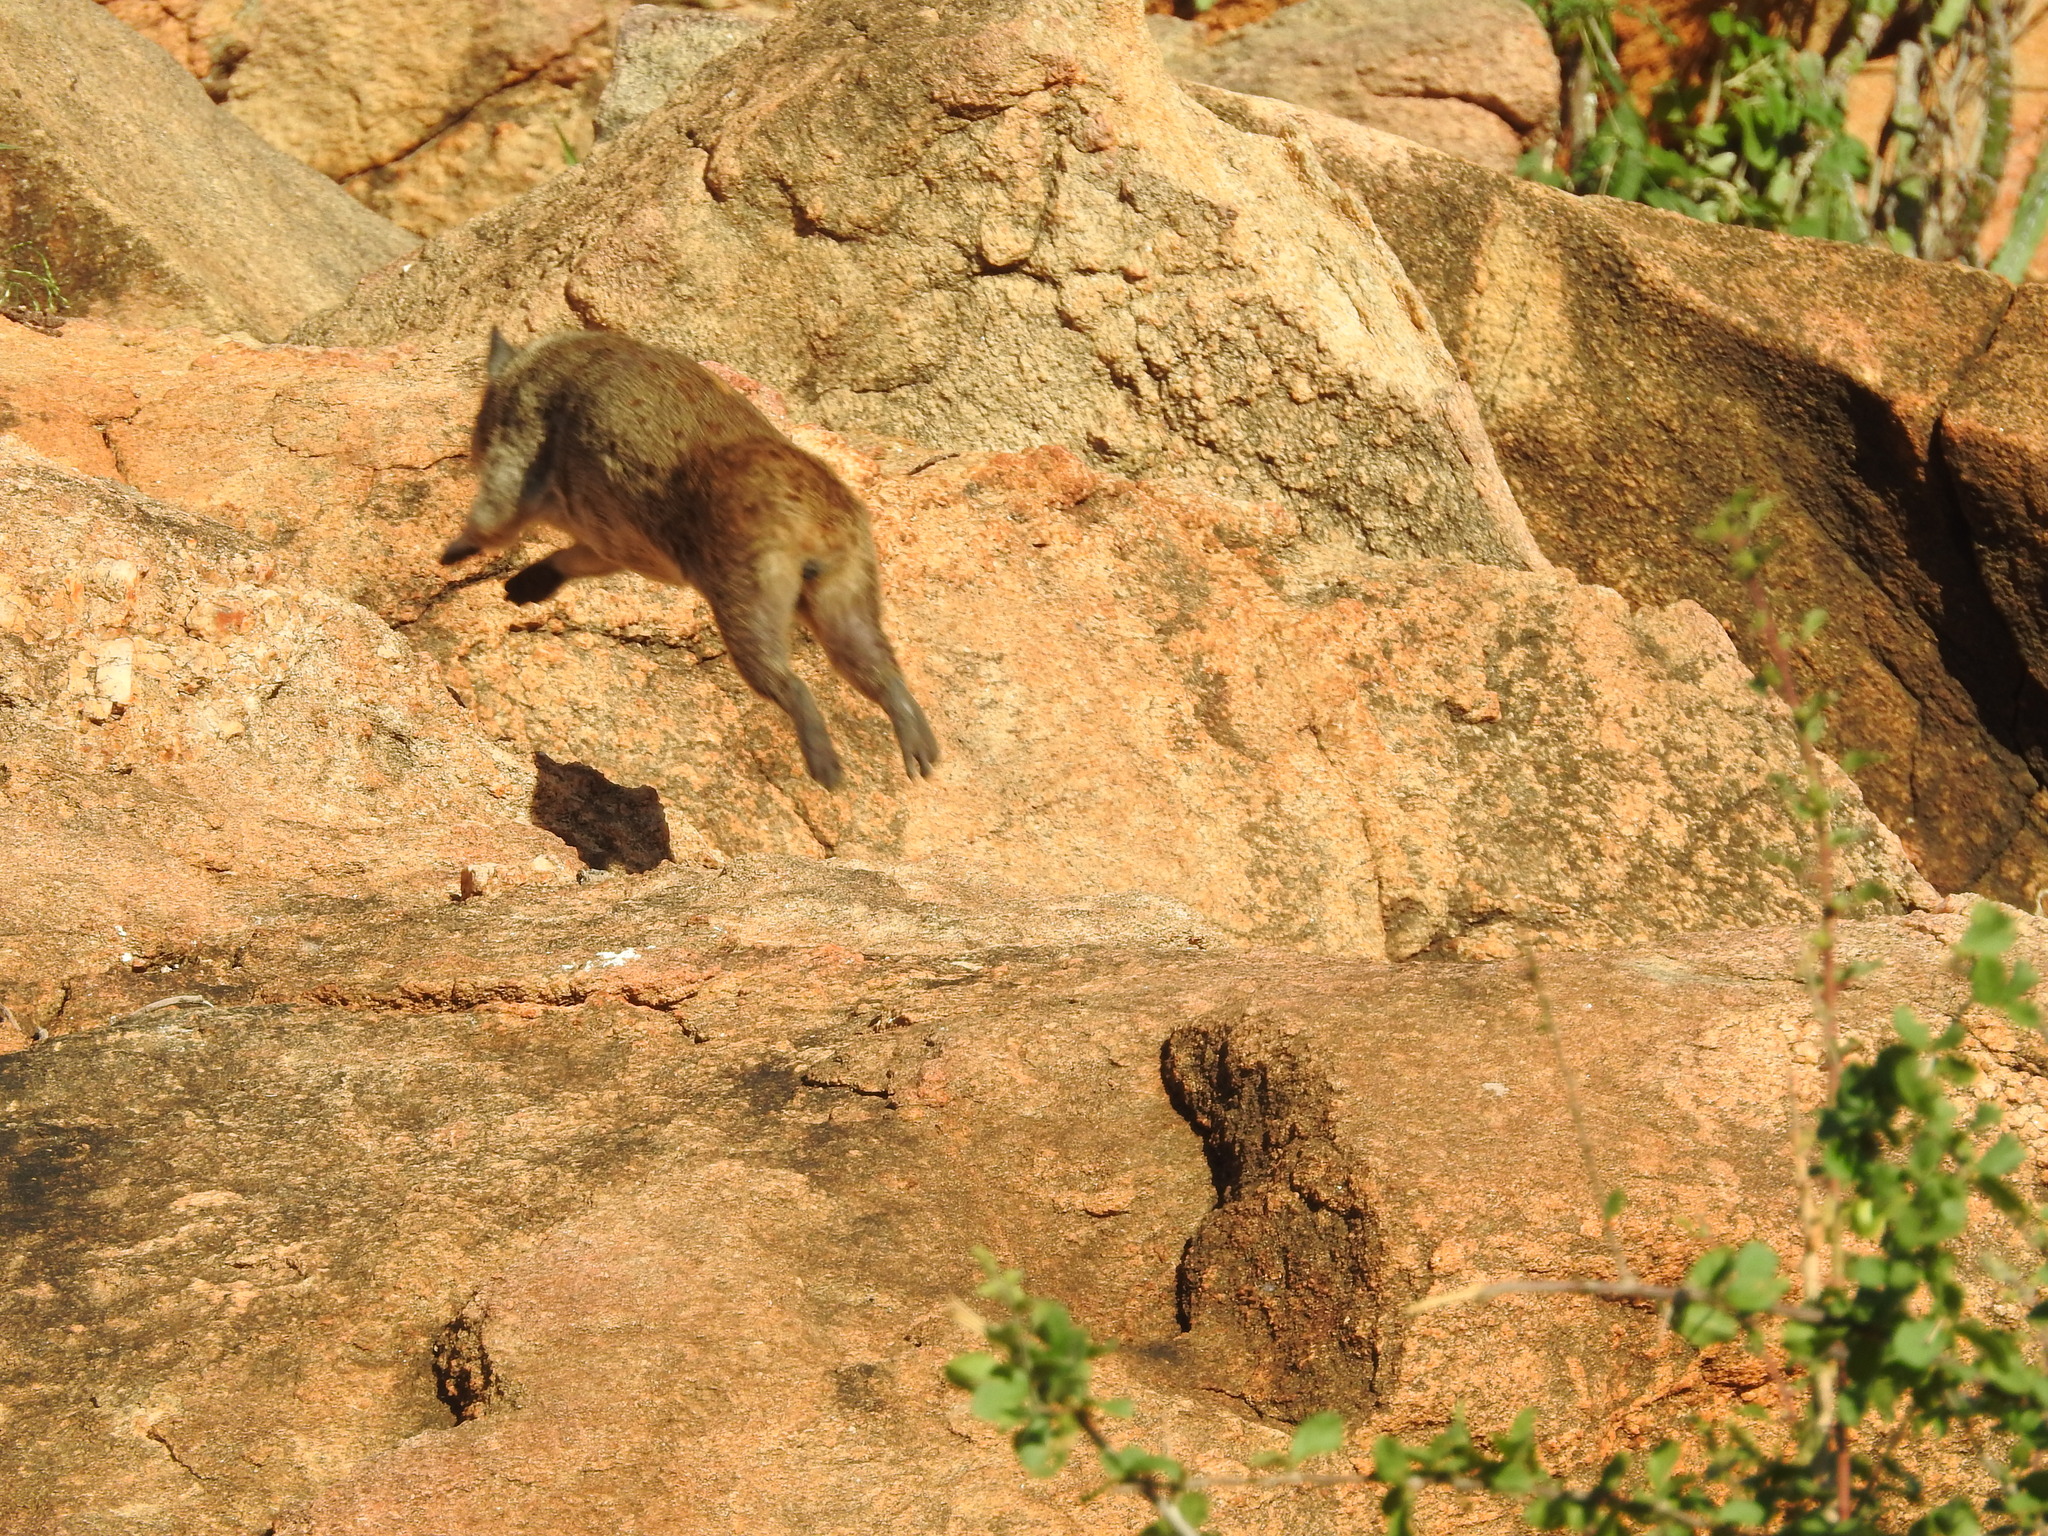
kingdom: Animalia
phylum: Chordata
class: Mammalia
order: Hyracoidea
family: Procaviidae
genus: Heterohyrax
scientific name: Heterohyrax brucei
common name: Bush hyrax
